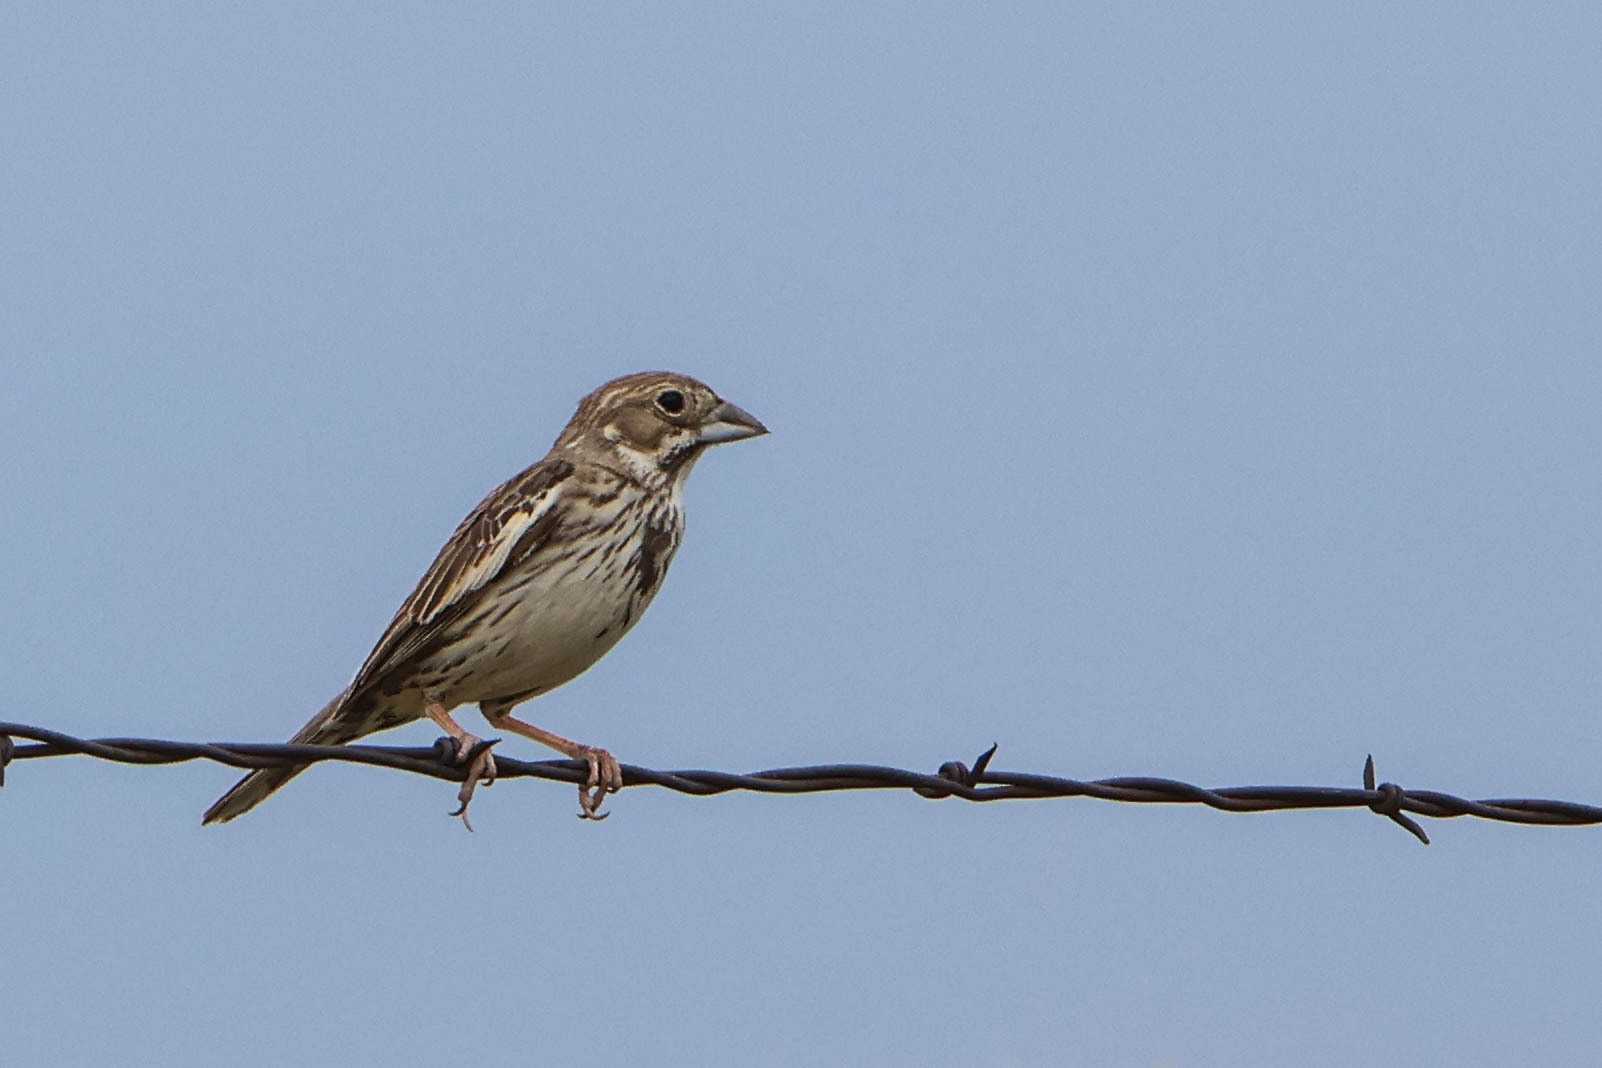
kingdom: Animalia
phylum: Chordata
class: Aves
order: Passeriformes
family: Passerellidae
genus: Calamospiza
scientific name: Calamospiza melanocorys
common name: Lark bunting
